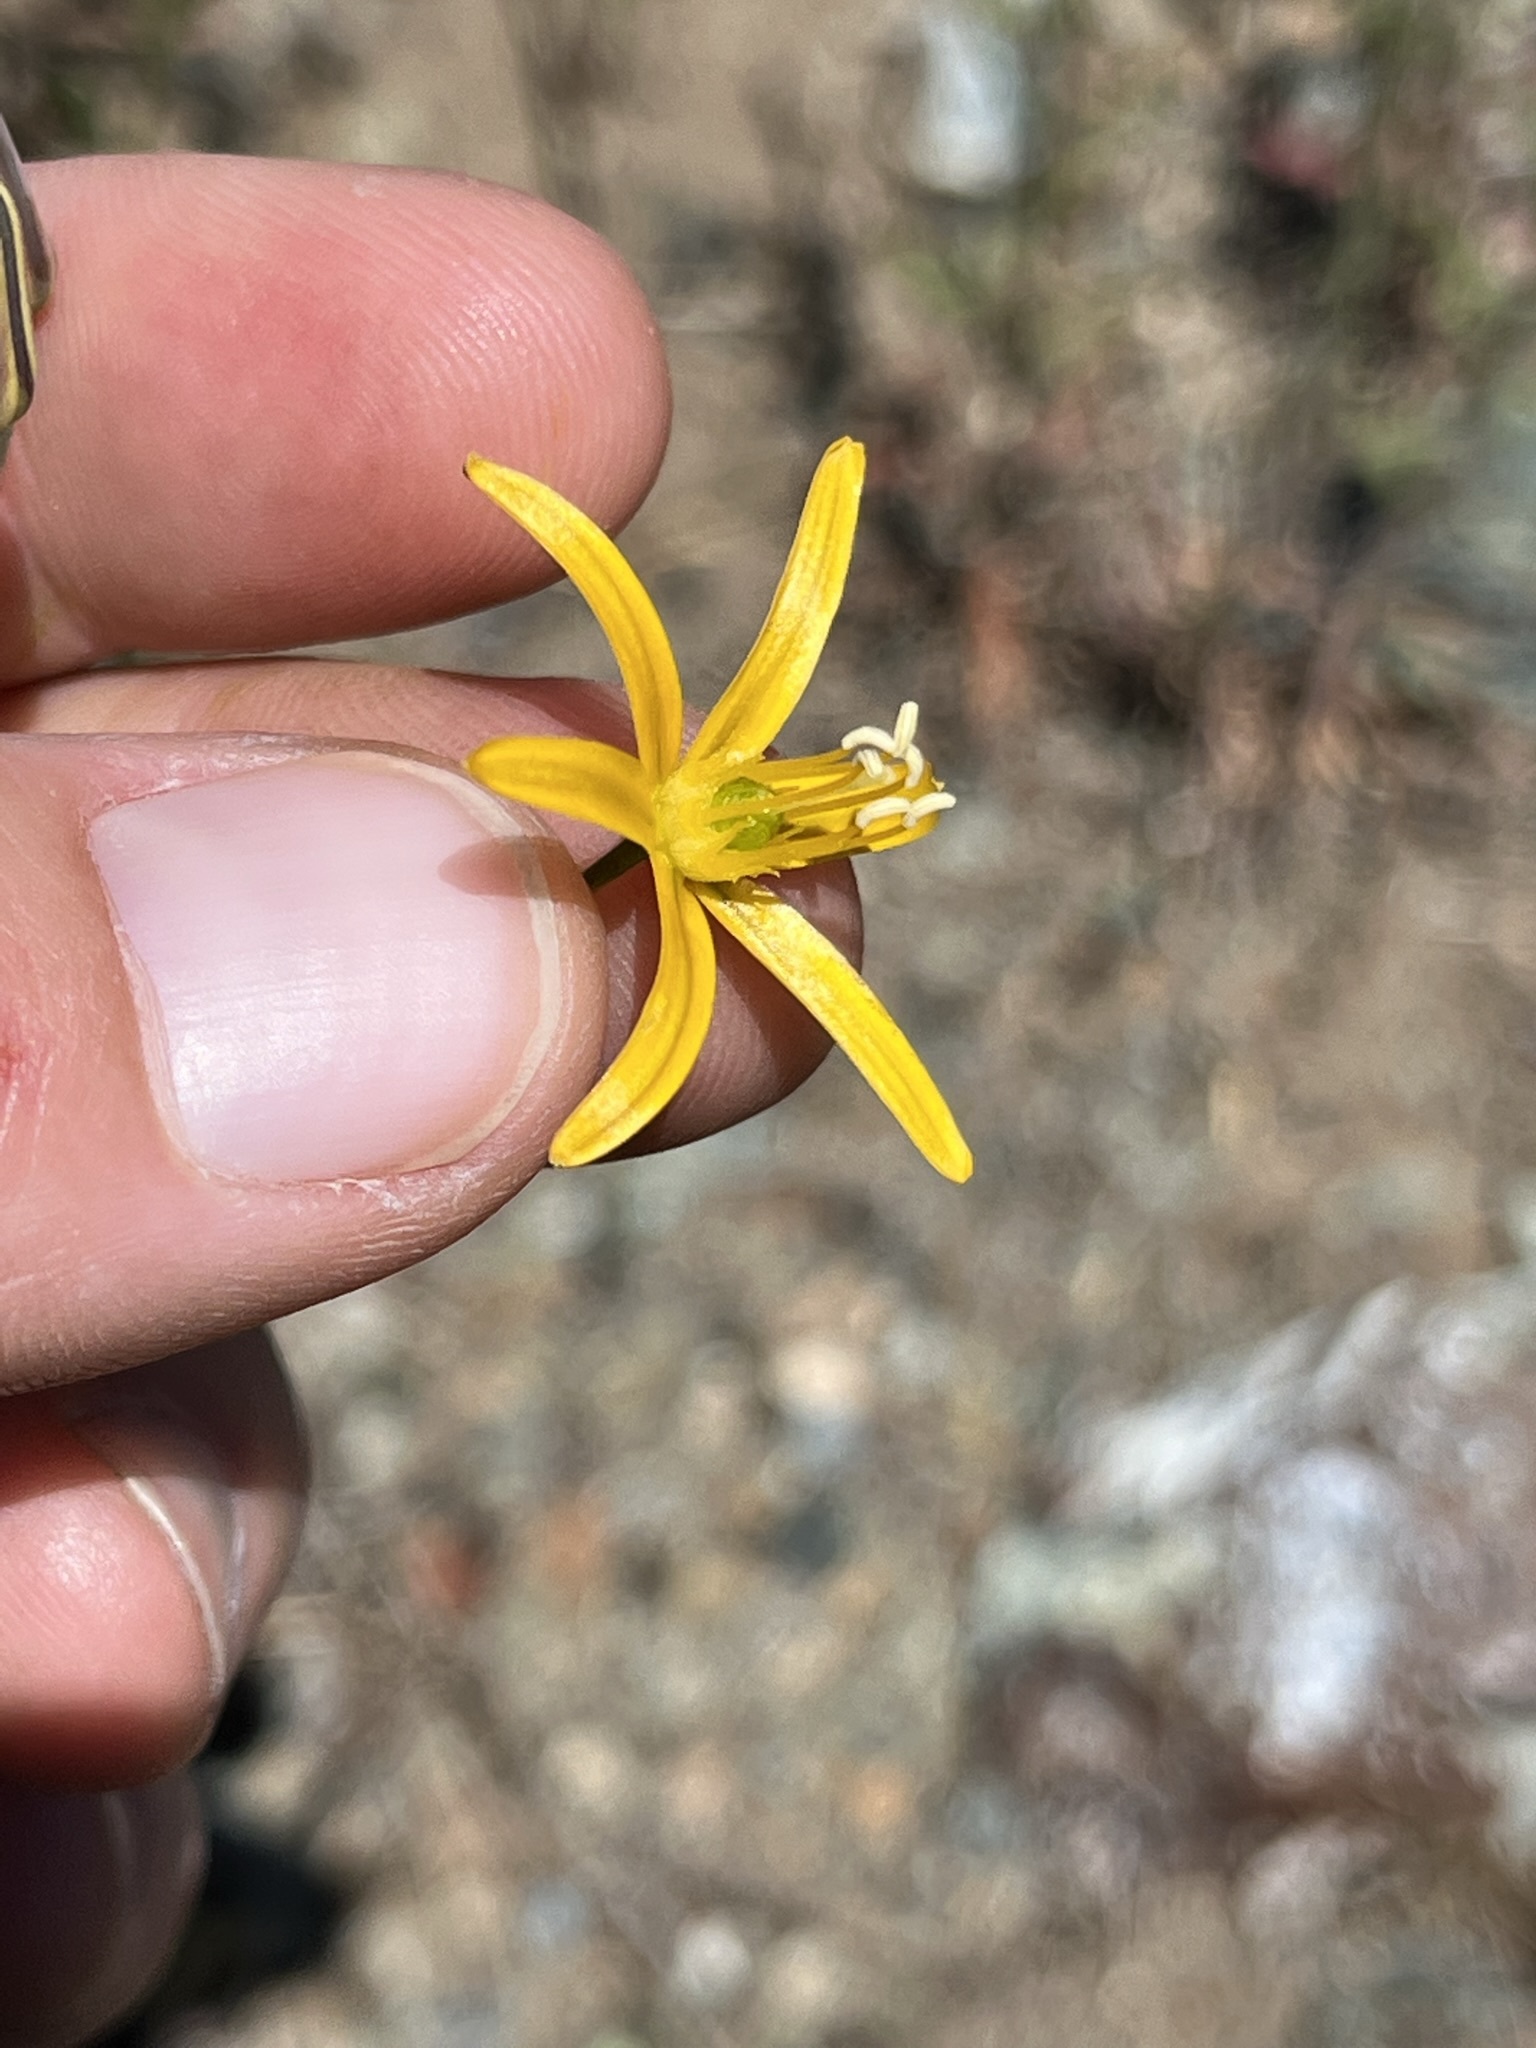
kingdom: Plantae
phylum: Tracheophyta
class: Liliopsida
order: Asparagales
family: Asparagaceae
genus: Bloomeria
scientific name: Bloomeria crocea
